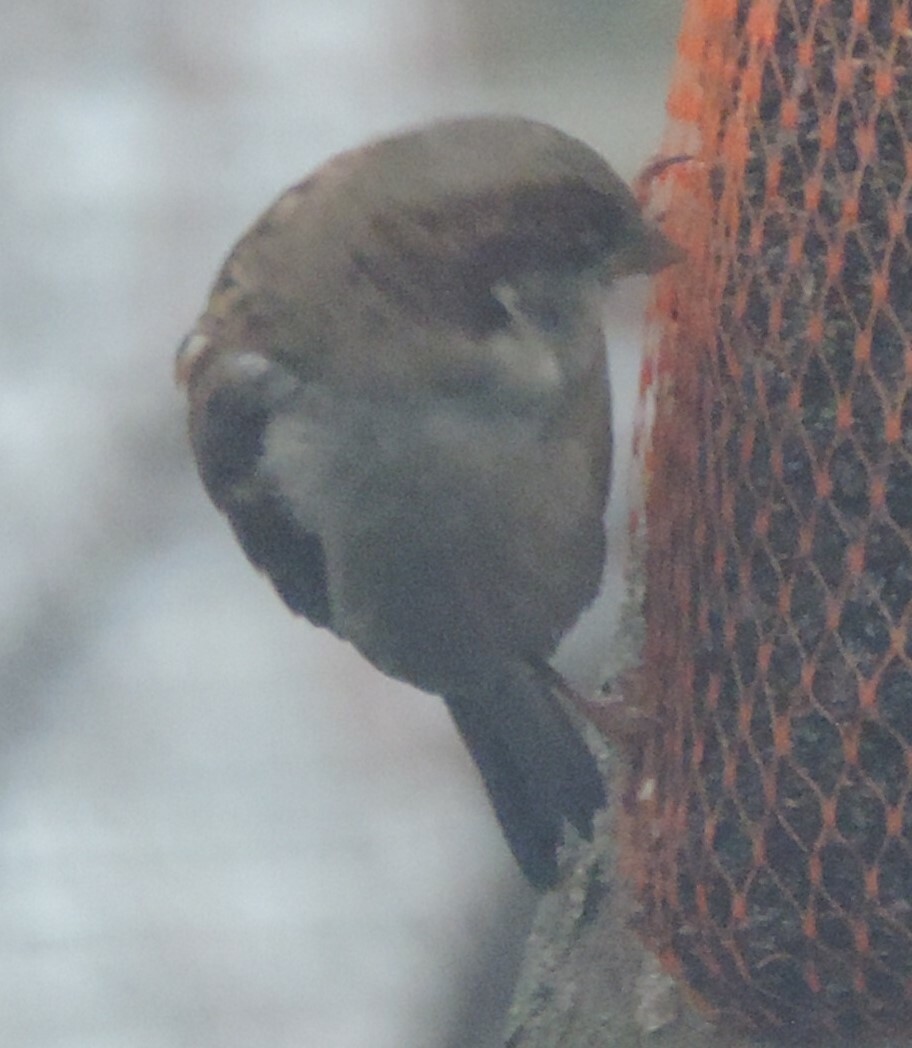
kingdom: Animalia
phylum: Chordata
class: Aves
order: Passeriformes
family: Passeridae
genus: Passer
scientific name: Passer domesticus
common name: House sparrow
